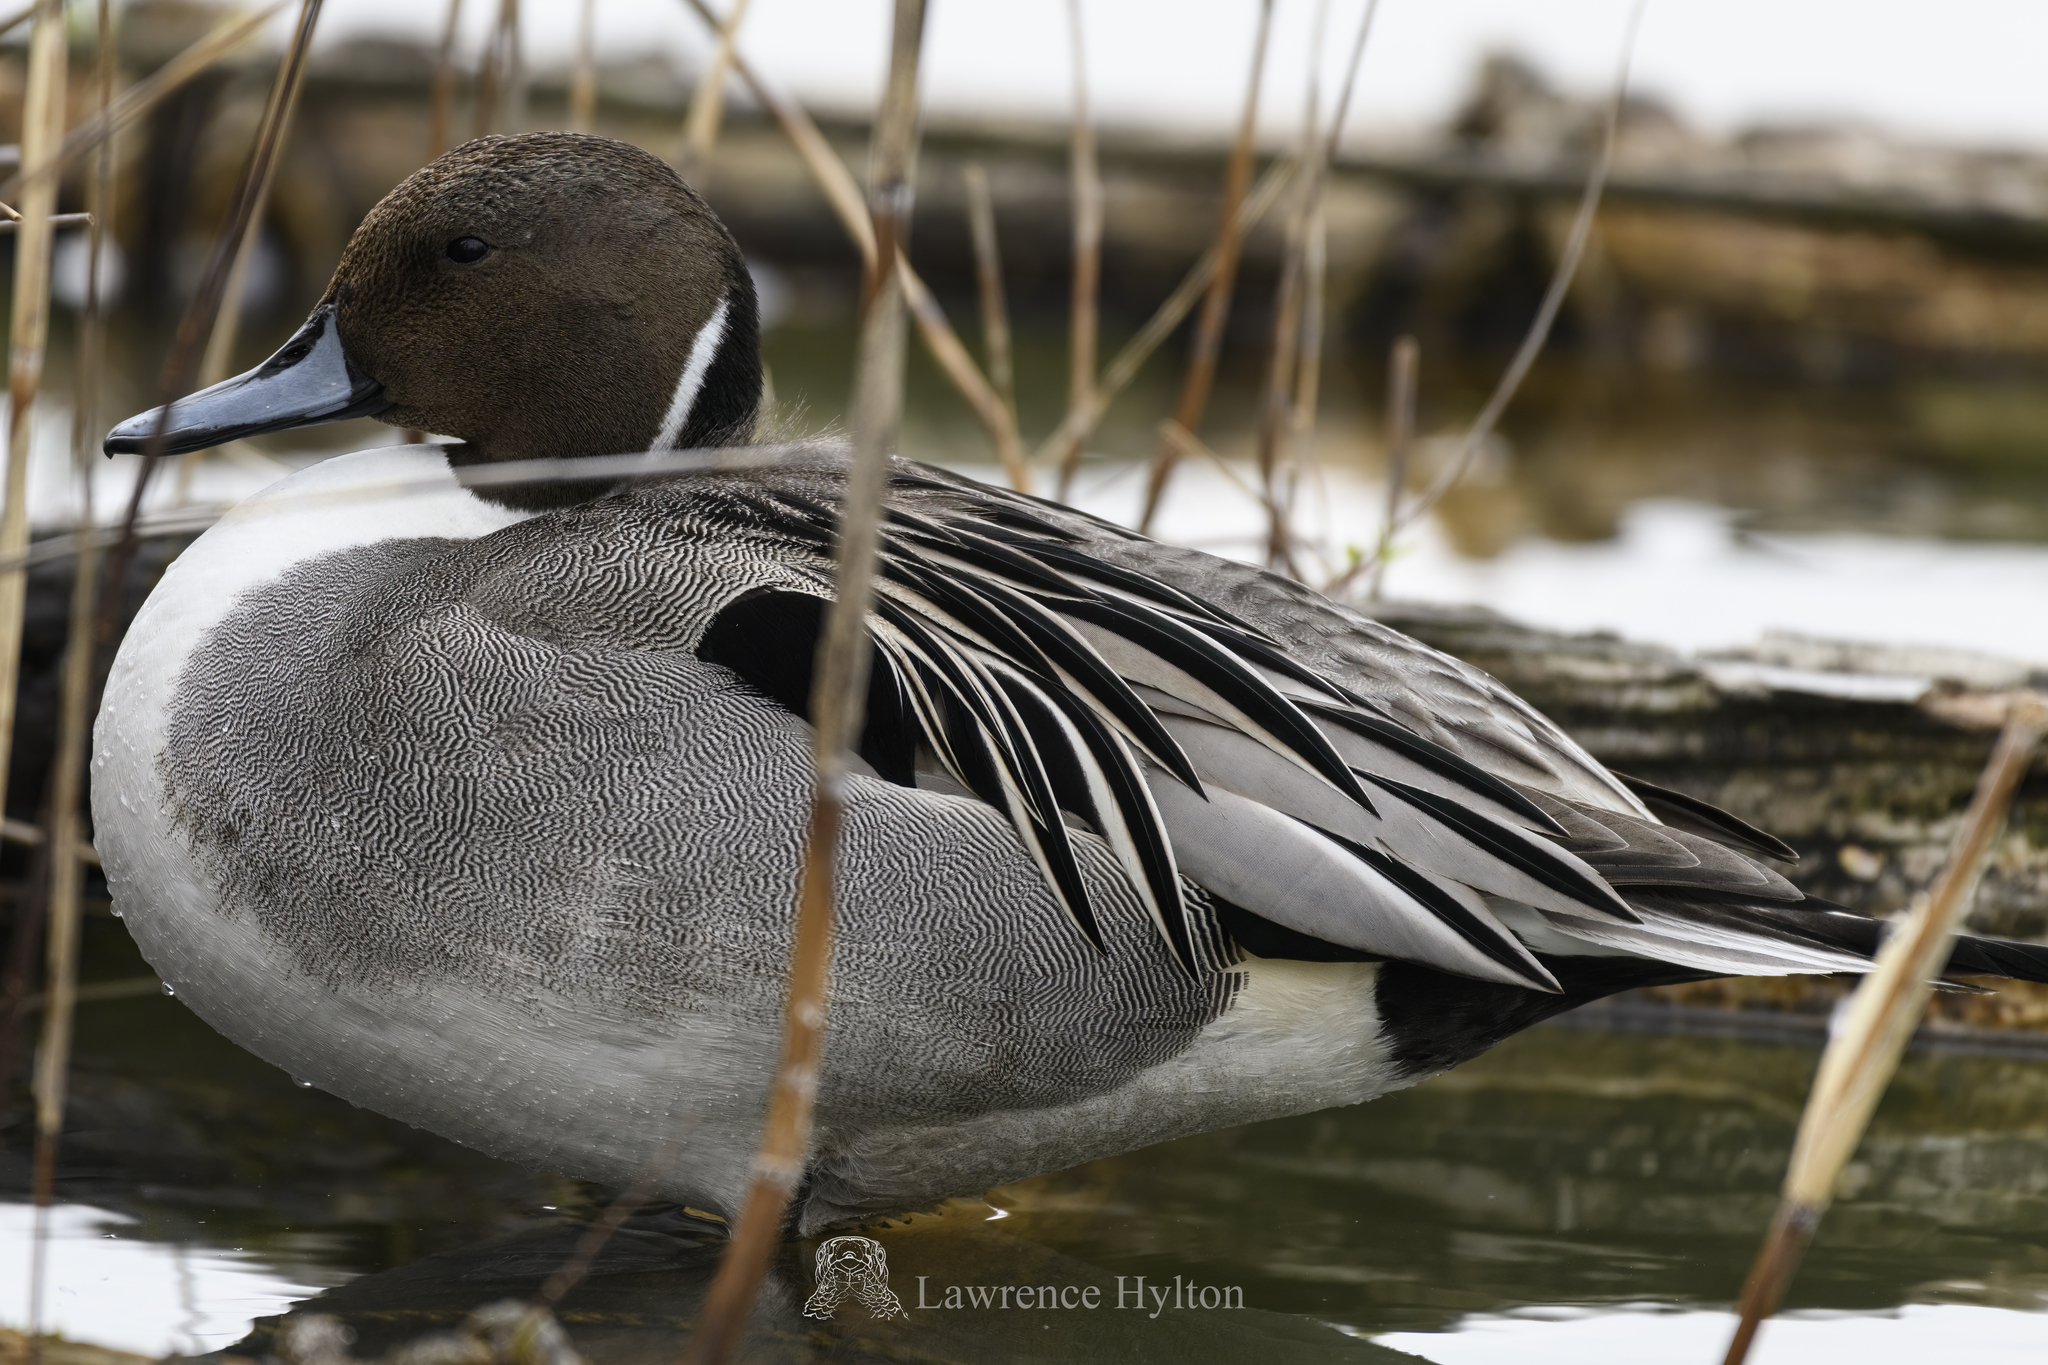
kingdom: Animalia
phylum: Chordata
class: Aves
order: Anseriformes
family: Anatidae
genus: Anas
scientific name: Anas acuta
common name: Northern pintail
